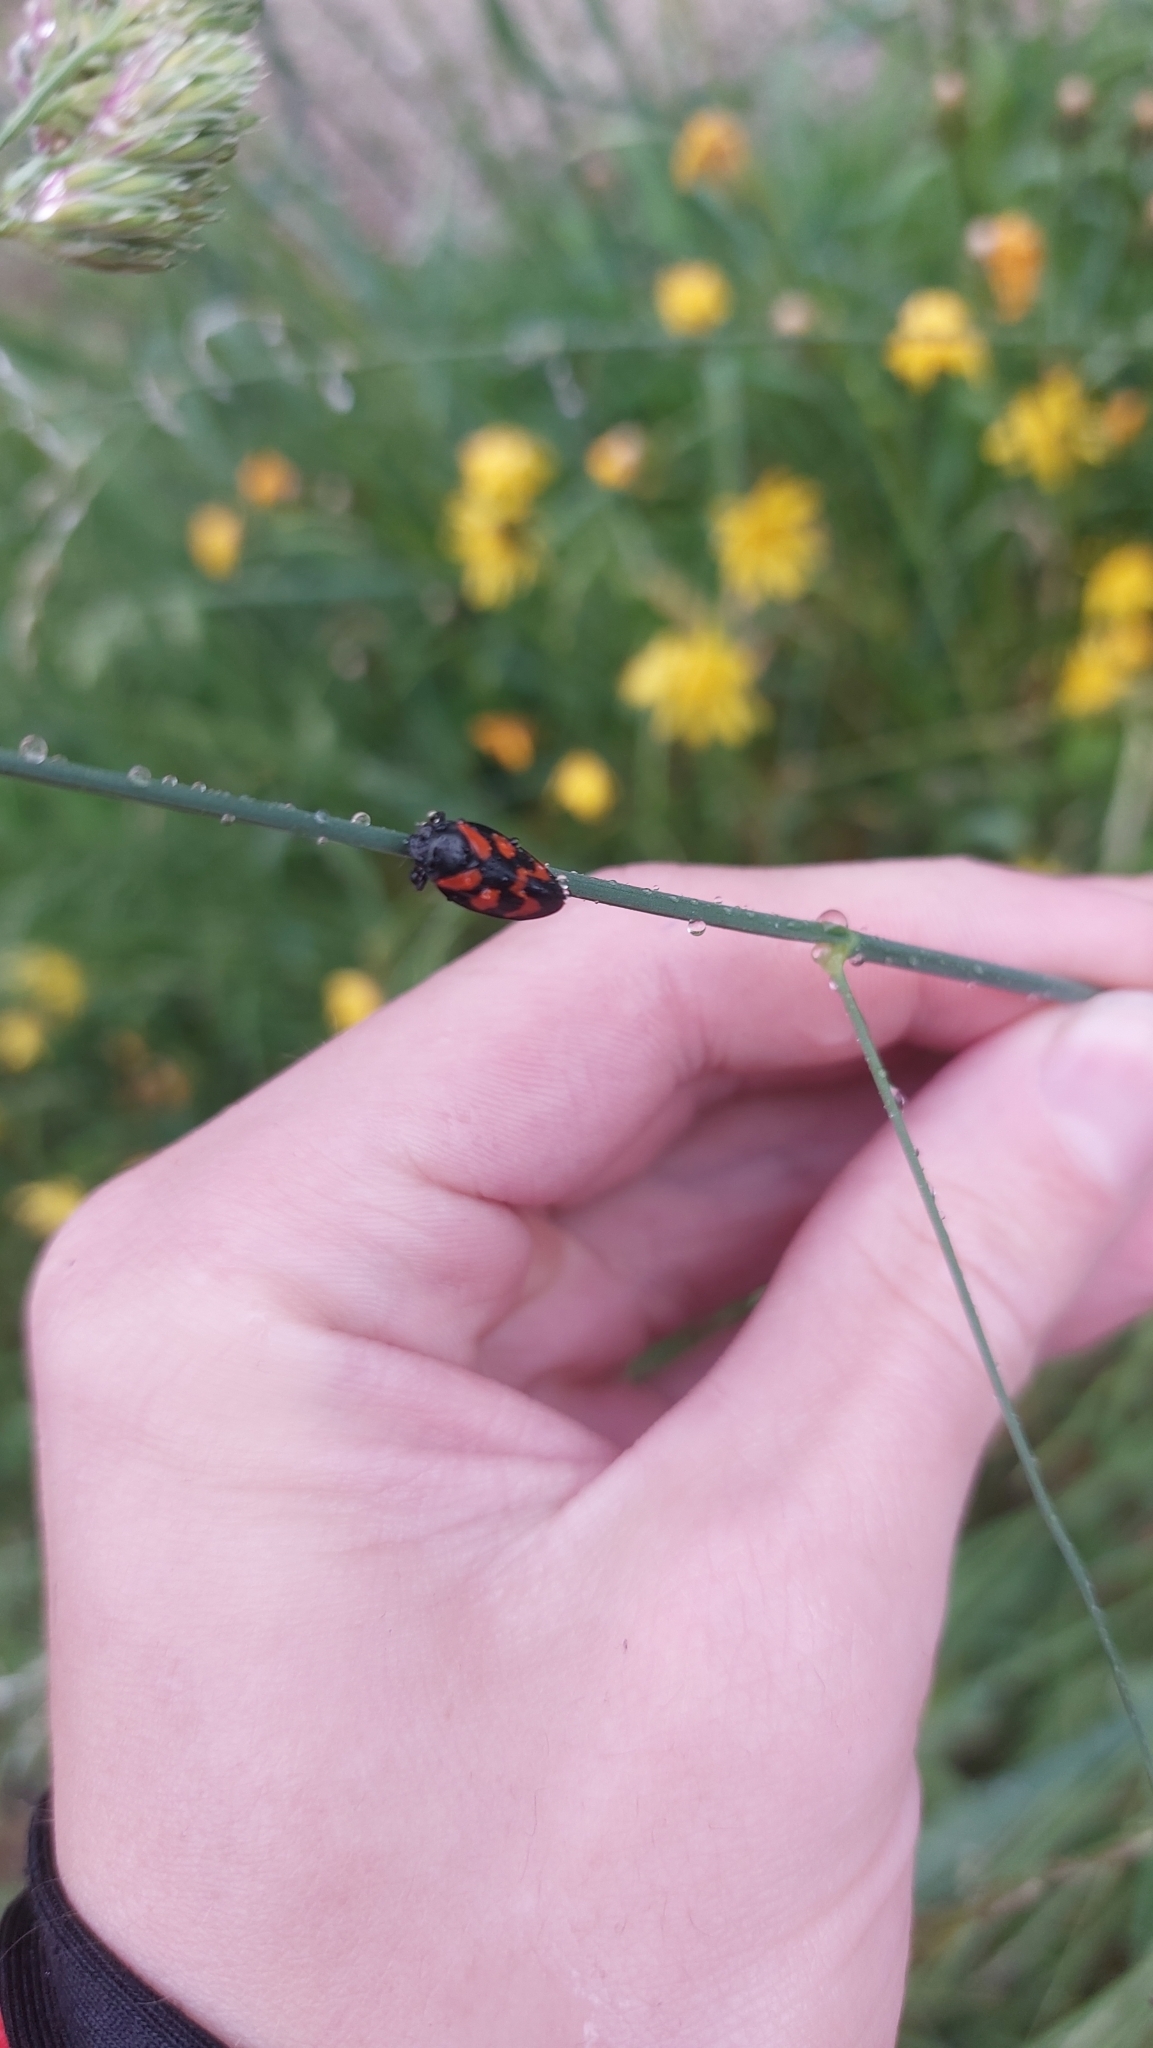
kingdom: Animalia
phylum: Arthropoda
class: Insecta
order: Hemiptera
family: Cercopidae
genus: Cercopis
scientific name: Cercopis vulnerata
